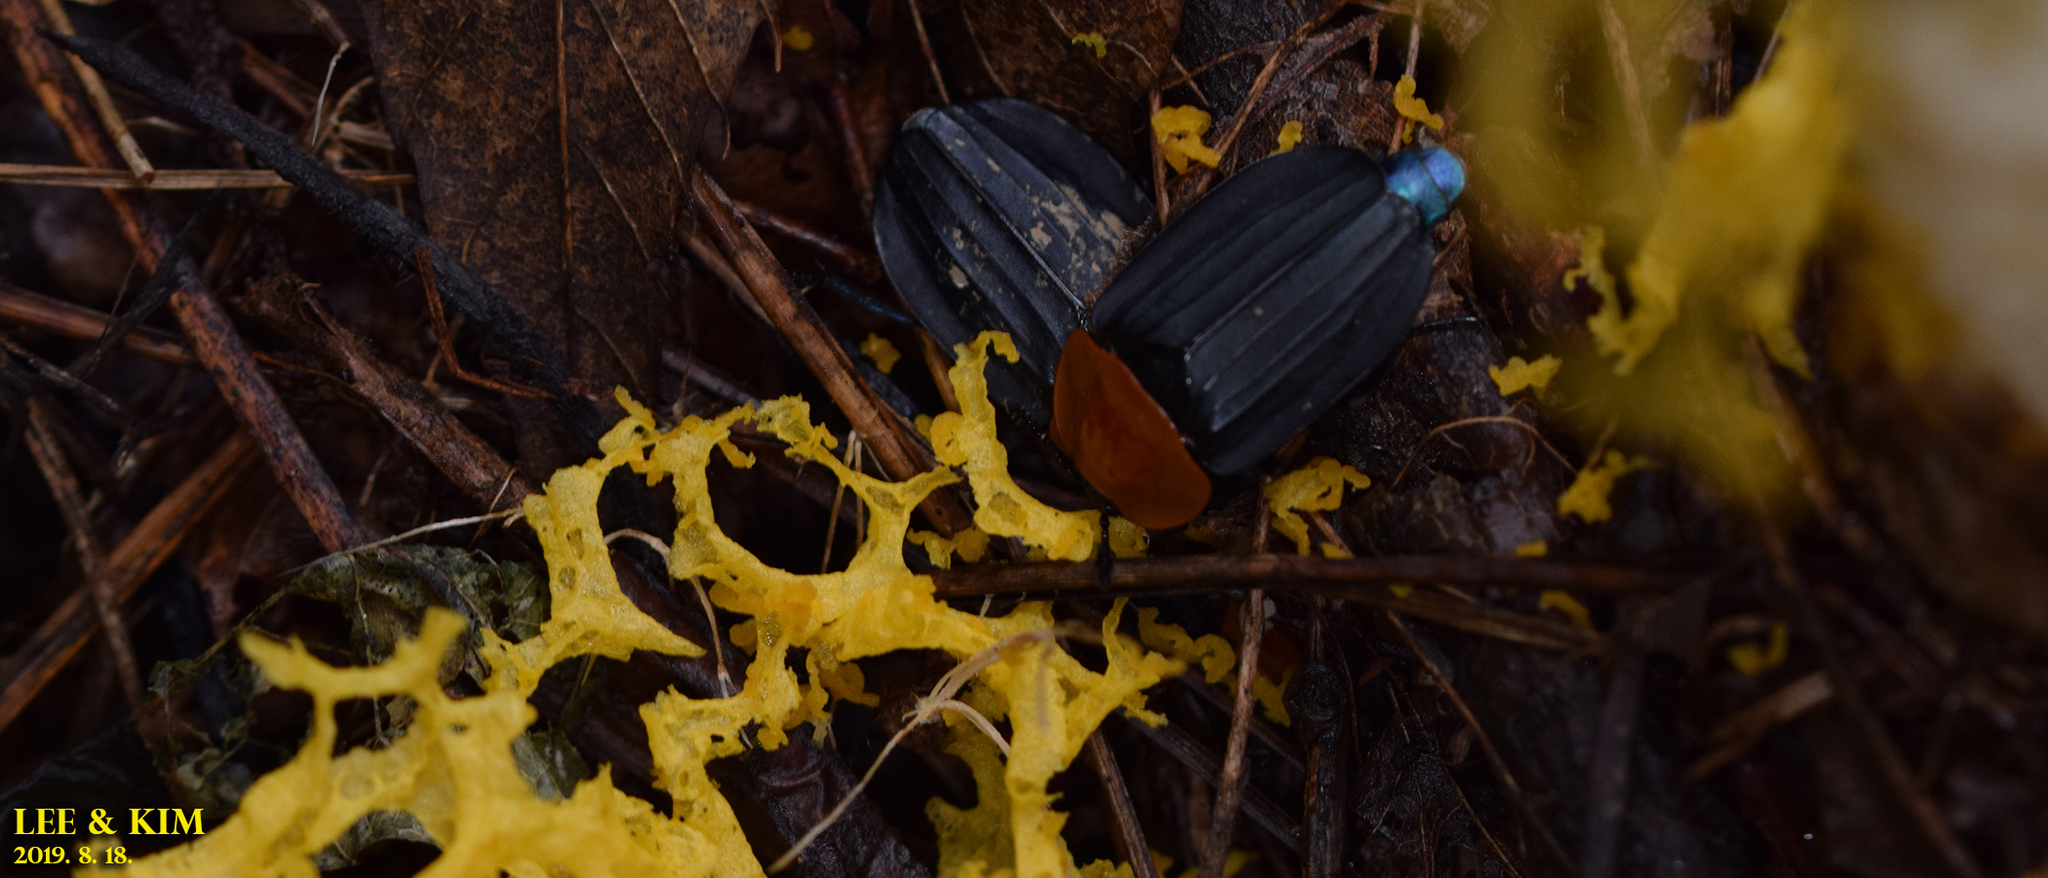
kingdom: Animalia
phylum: Arthropoda
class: Insecta
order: Coleoptera
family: Staphylinidae
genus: Necrophila
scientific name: Necrophila brunnicollis
